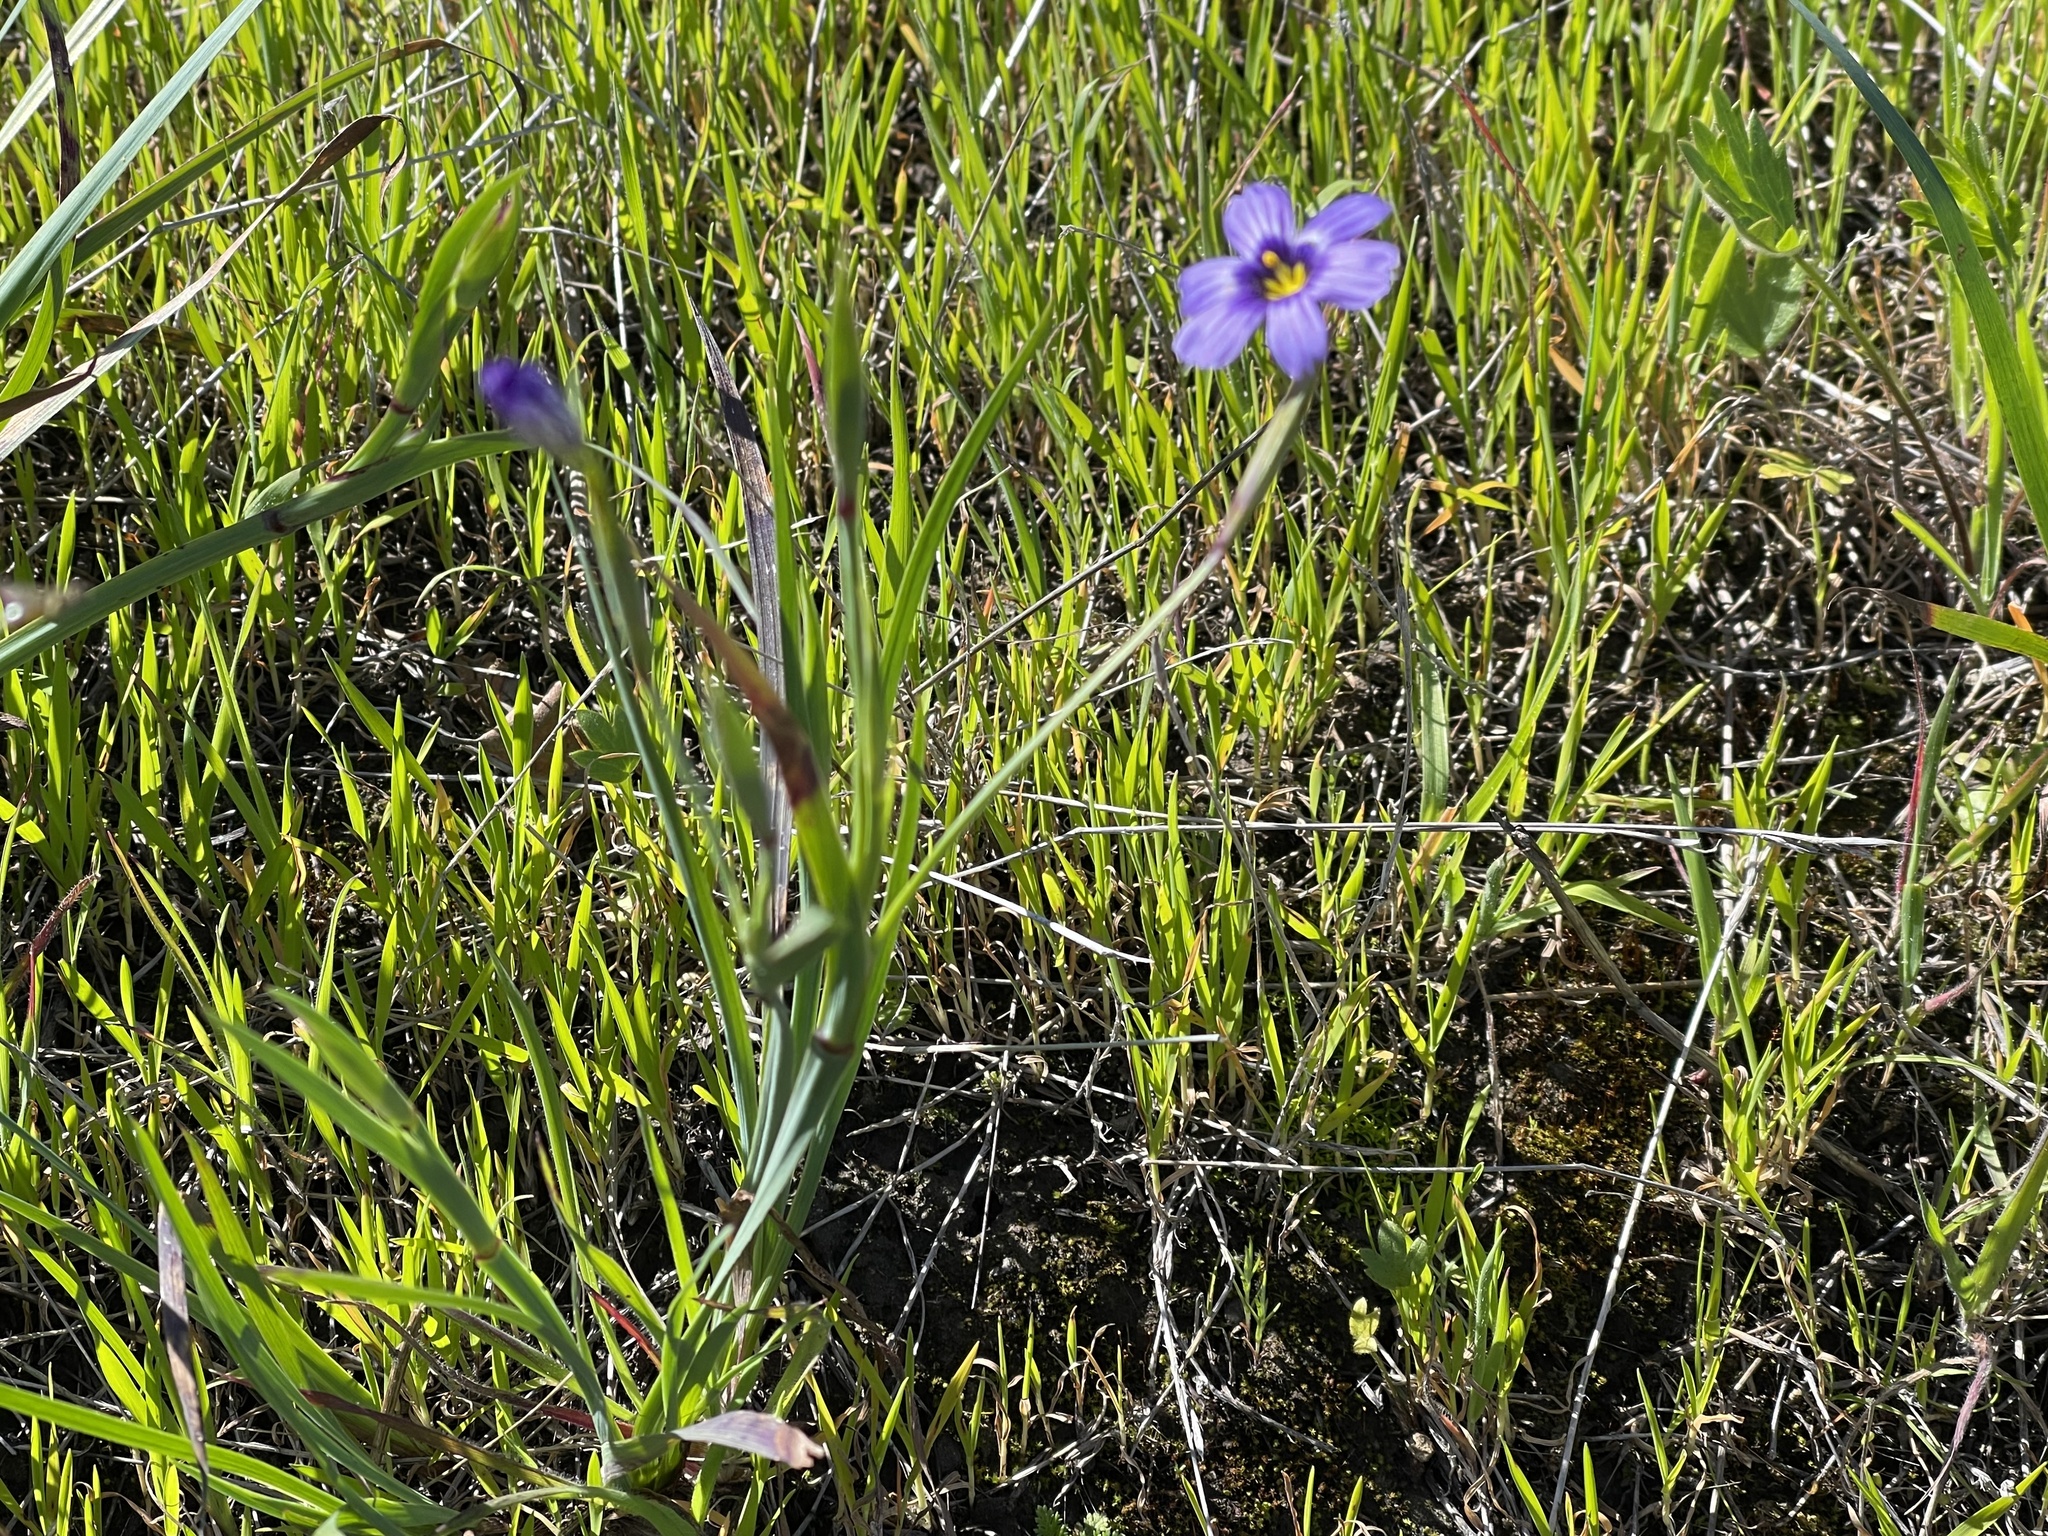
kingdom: Plantae
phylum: Tracheophyta
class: Liliopsida
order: Asparagales
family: Iridaceae
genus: Sisyrinchium
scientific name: Sisyrinchium bellum
